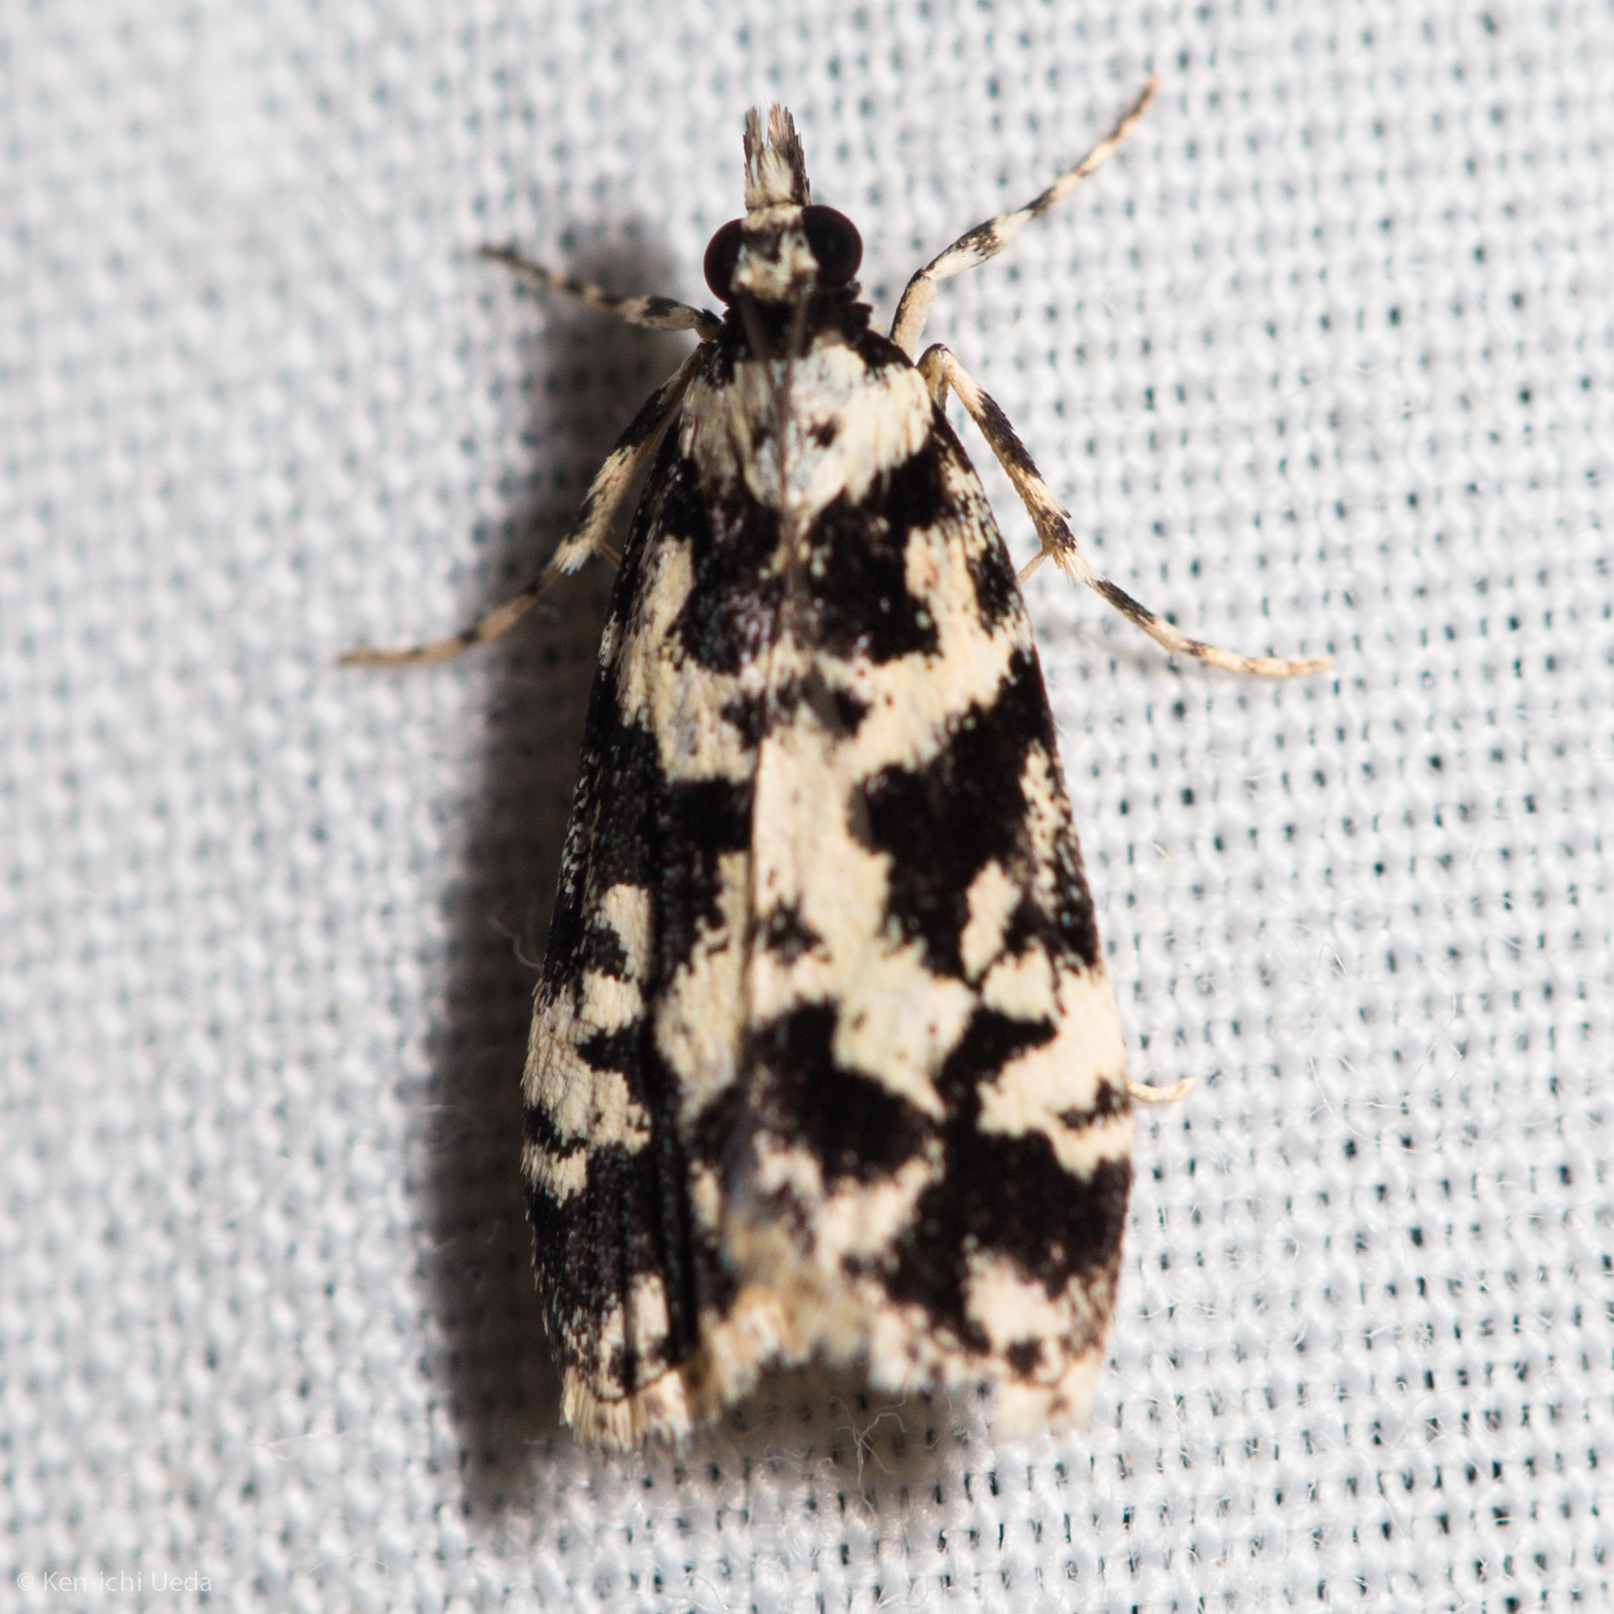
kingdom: Animalia
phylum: Arthropoda
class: Insecta
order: Lepidoptera
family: Crambidae
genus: Scoparia
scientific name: Scoparia exhibitalis
